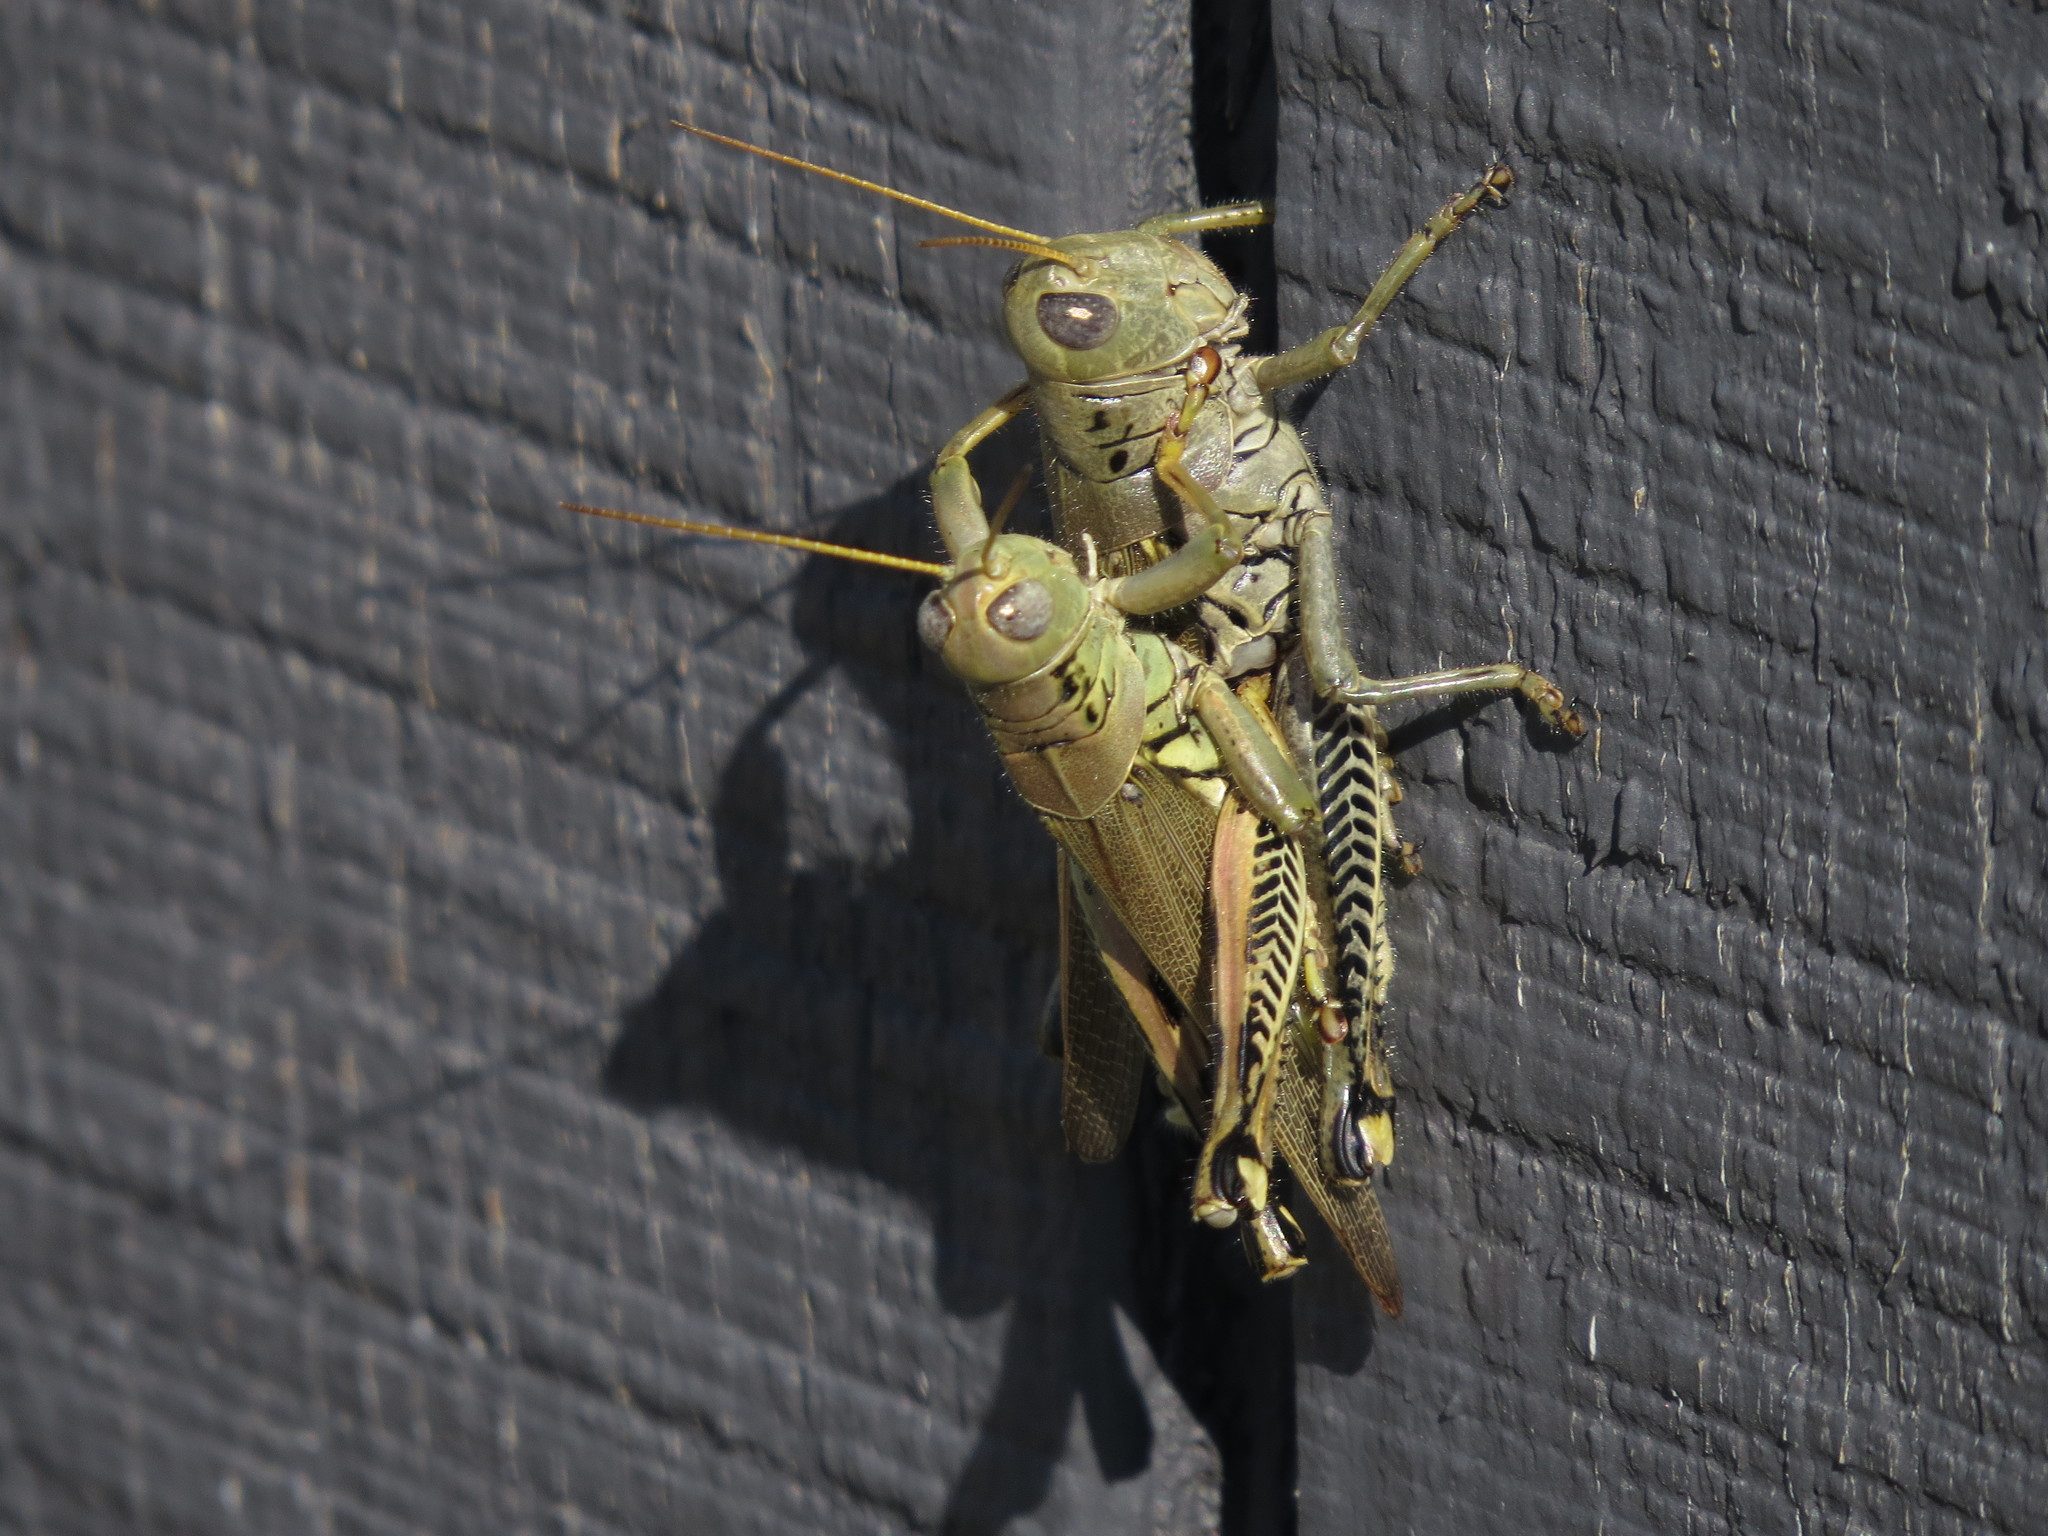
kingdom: Animalia
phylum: Arthropoda
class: Insecta
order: Orthoptera
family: Acrididae
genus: Melanoplus
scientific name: Melanoplus differentialis
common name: Differential grasshopper
